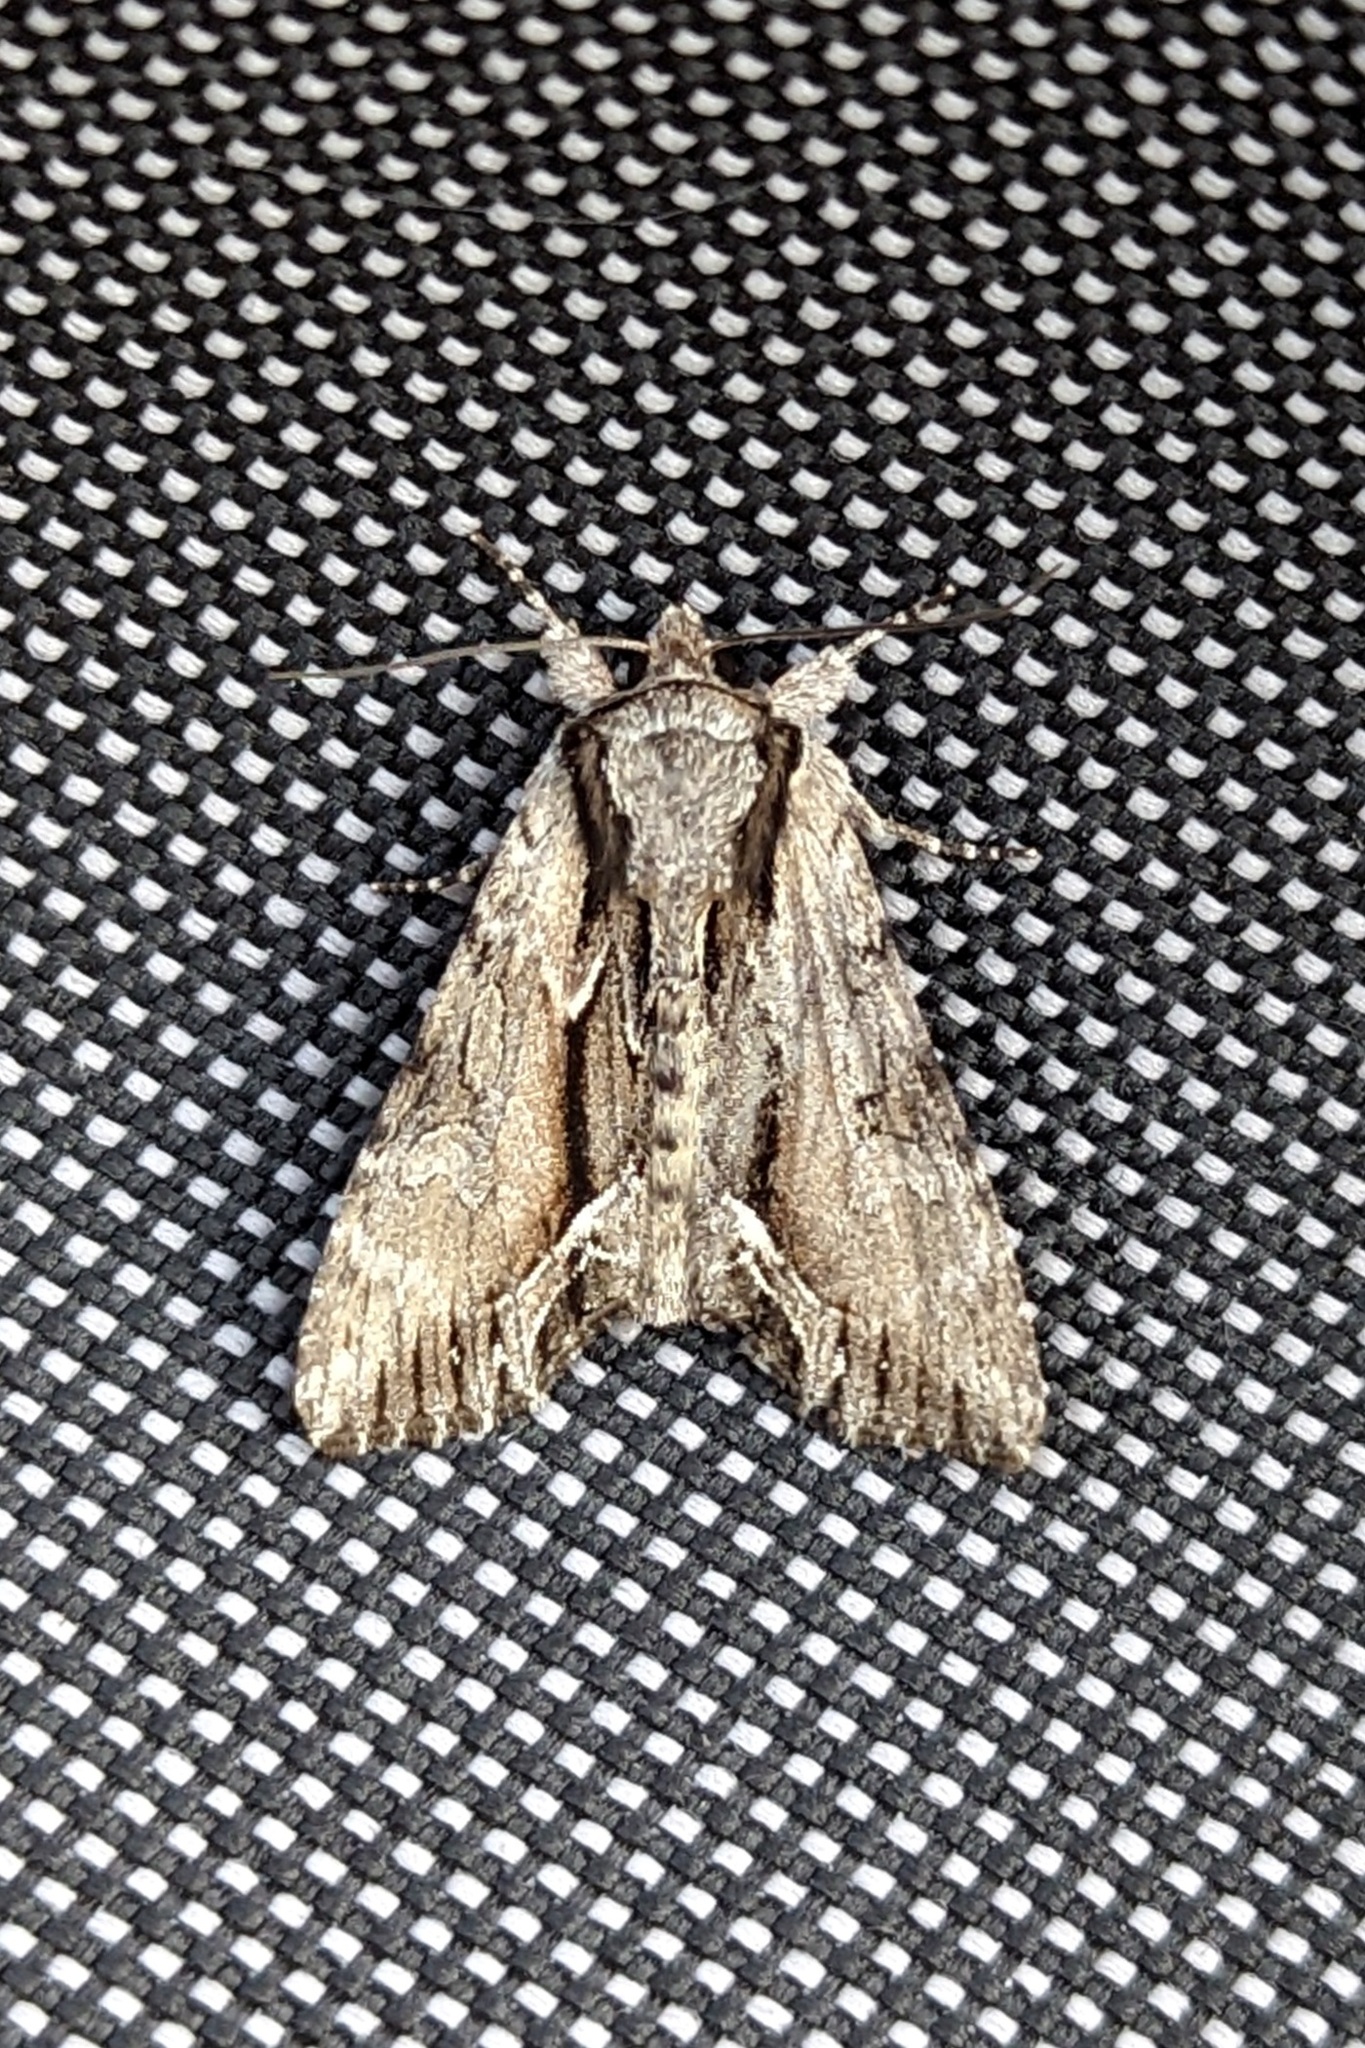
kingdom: Animalia
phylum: Arthropoda
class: Insecta
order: Lepidoptera
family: Noctuidae
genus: Hyppa
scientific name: Hyppa xylinoides
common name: Common hyppa moth
